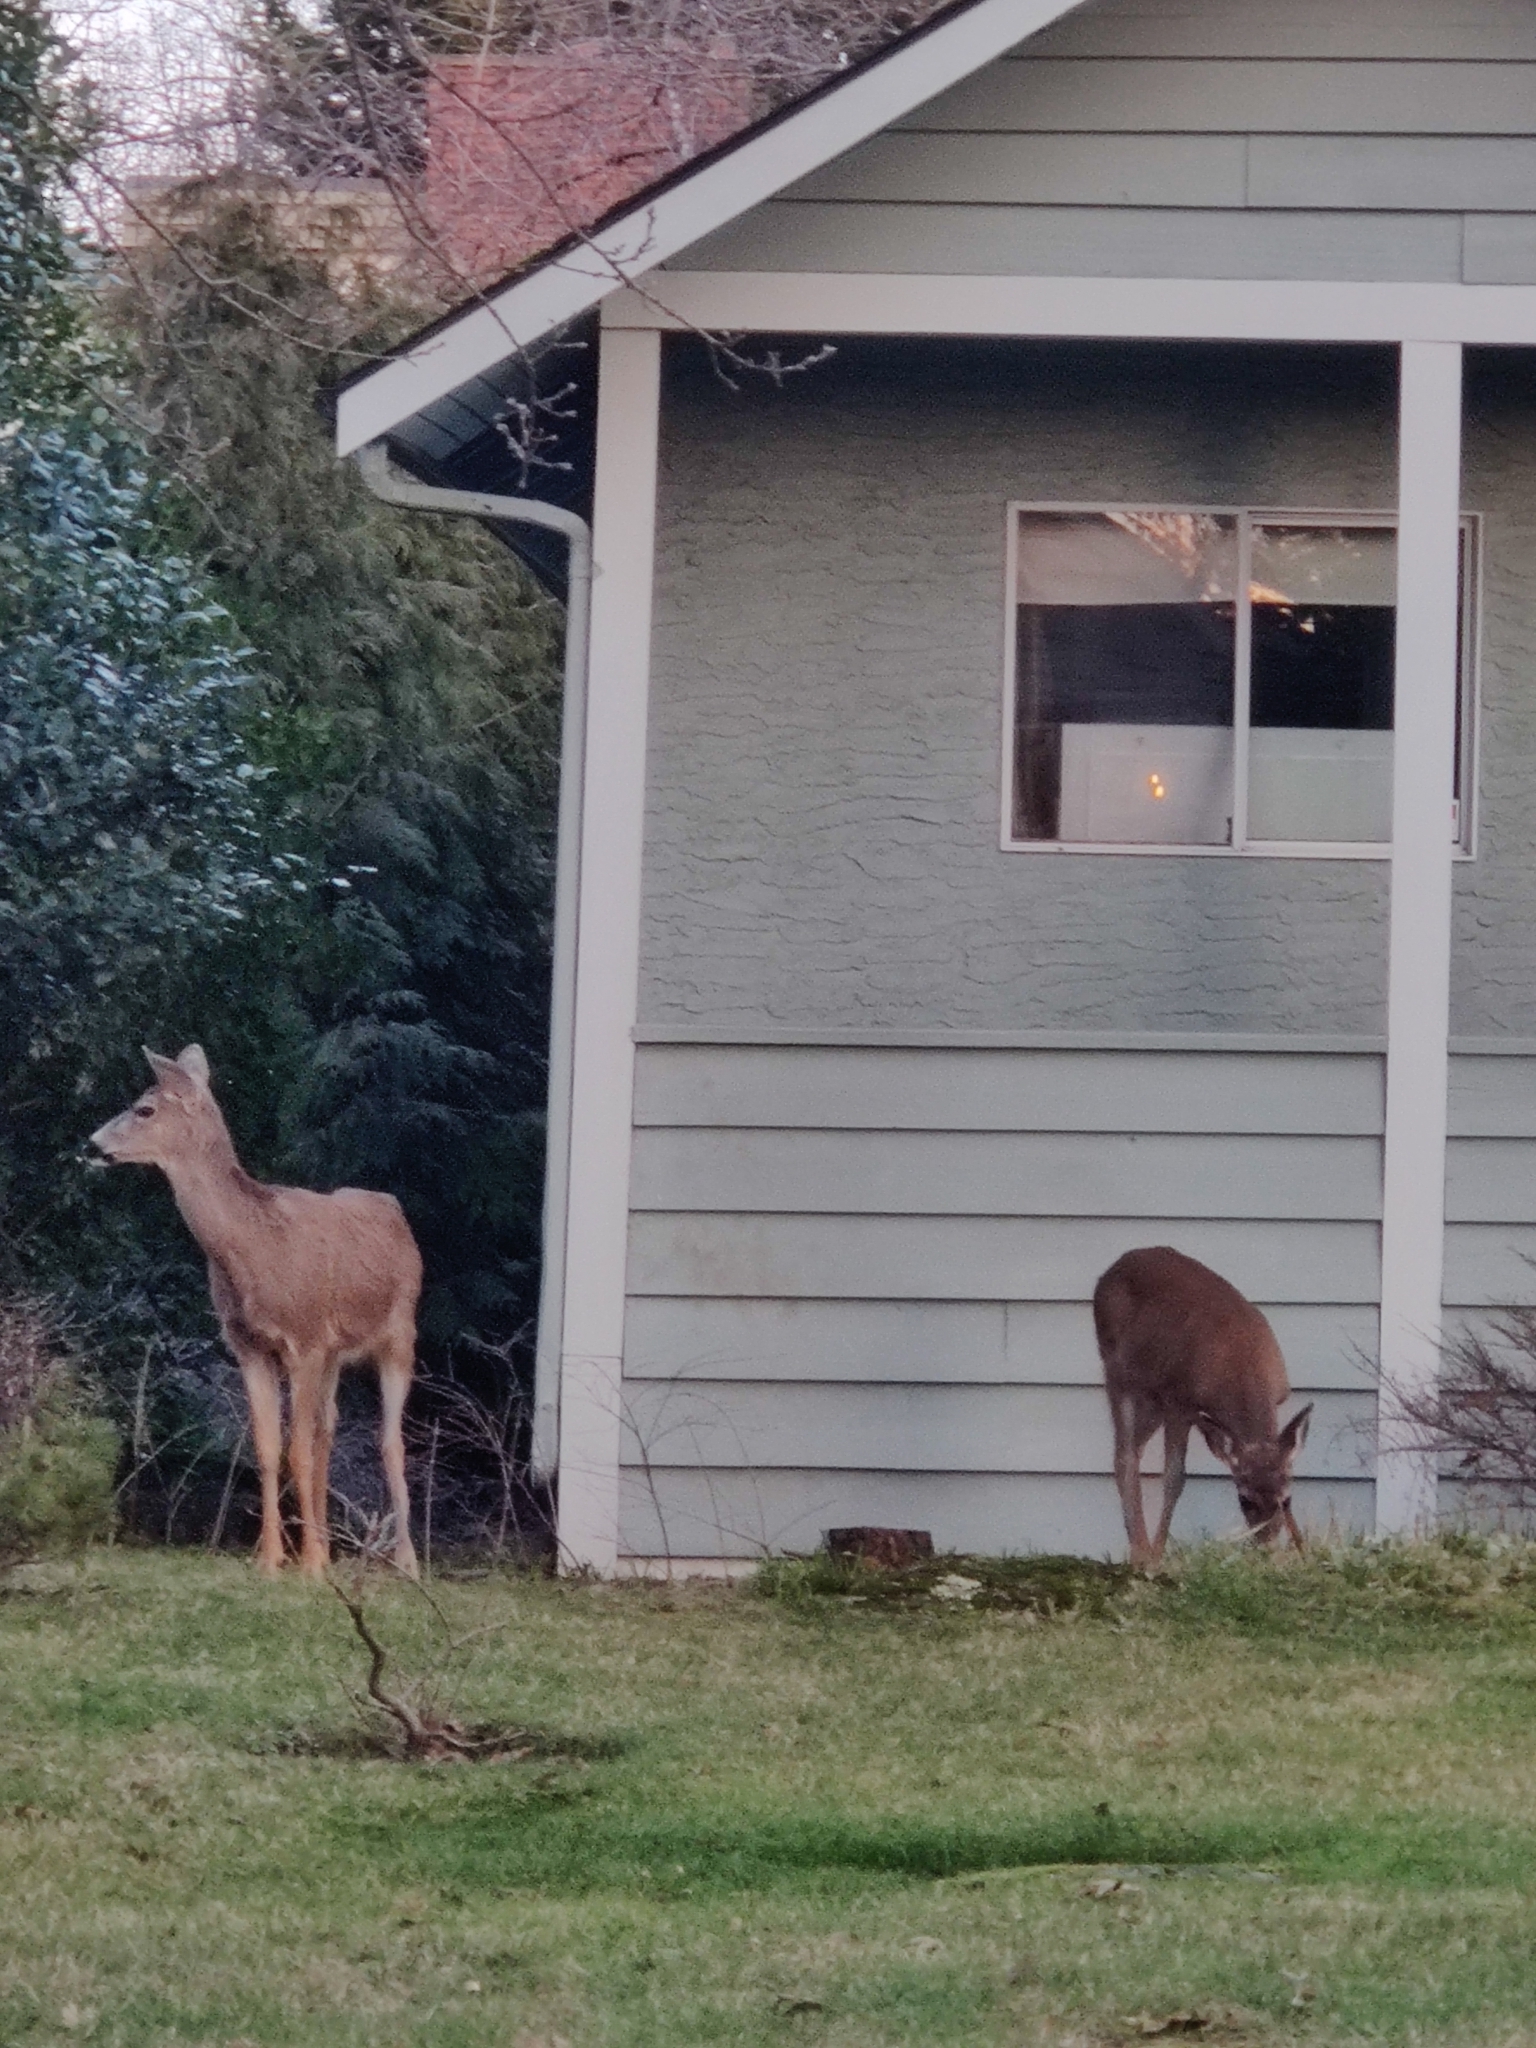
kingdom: Animalia
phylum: Chordata
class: Mammalia
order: Artiodactyla
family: Cervidae
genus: Odocoileus
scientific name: Odocoileus hemionus
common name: Mule deer
